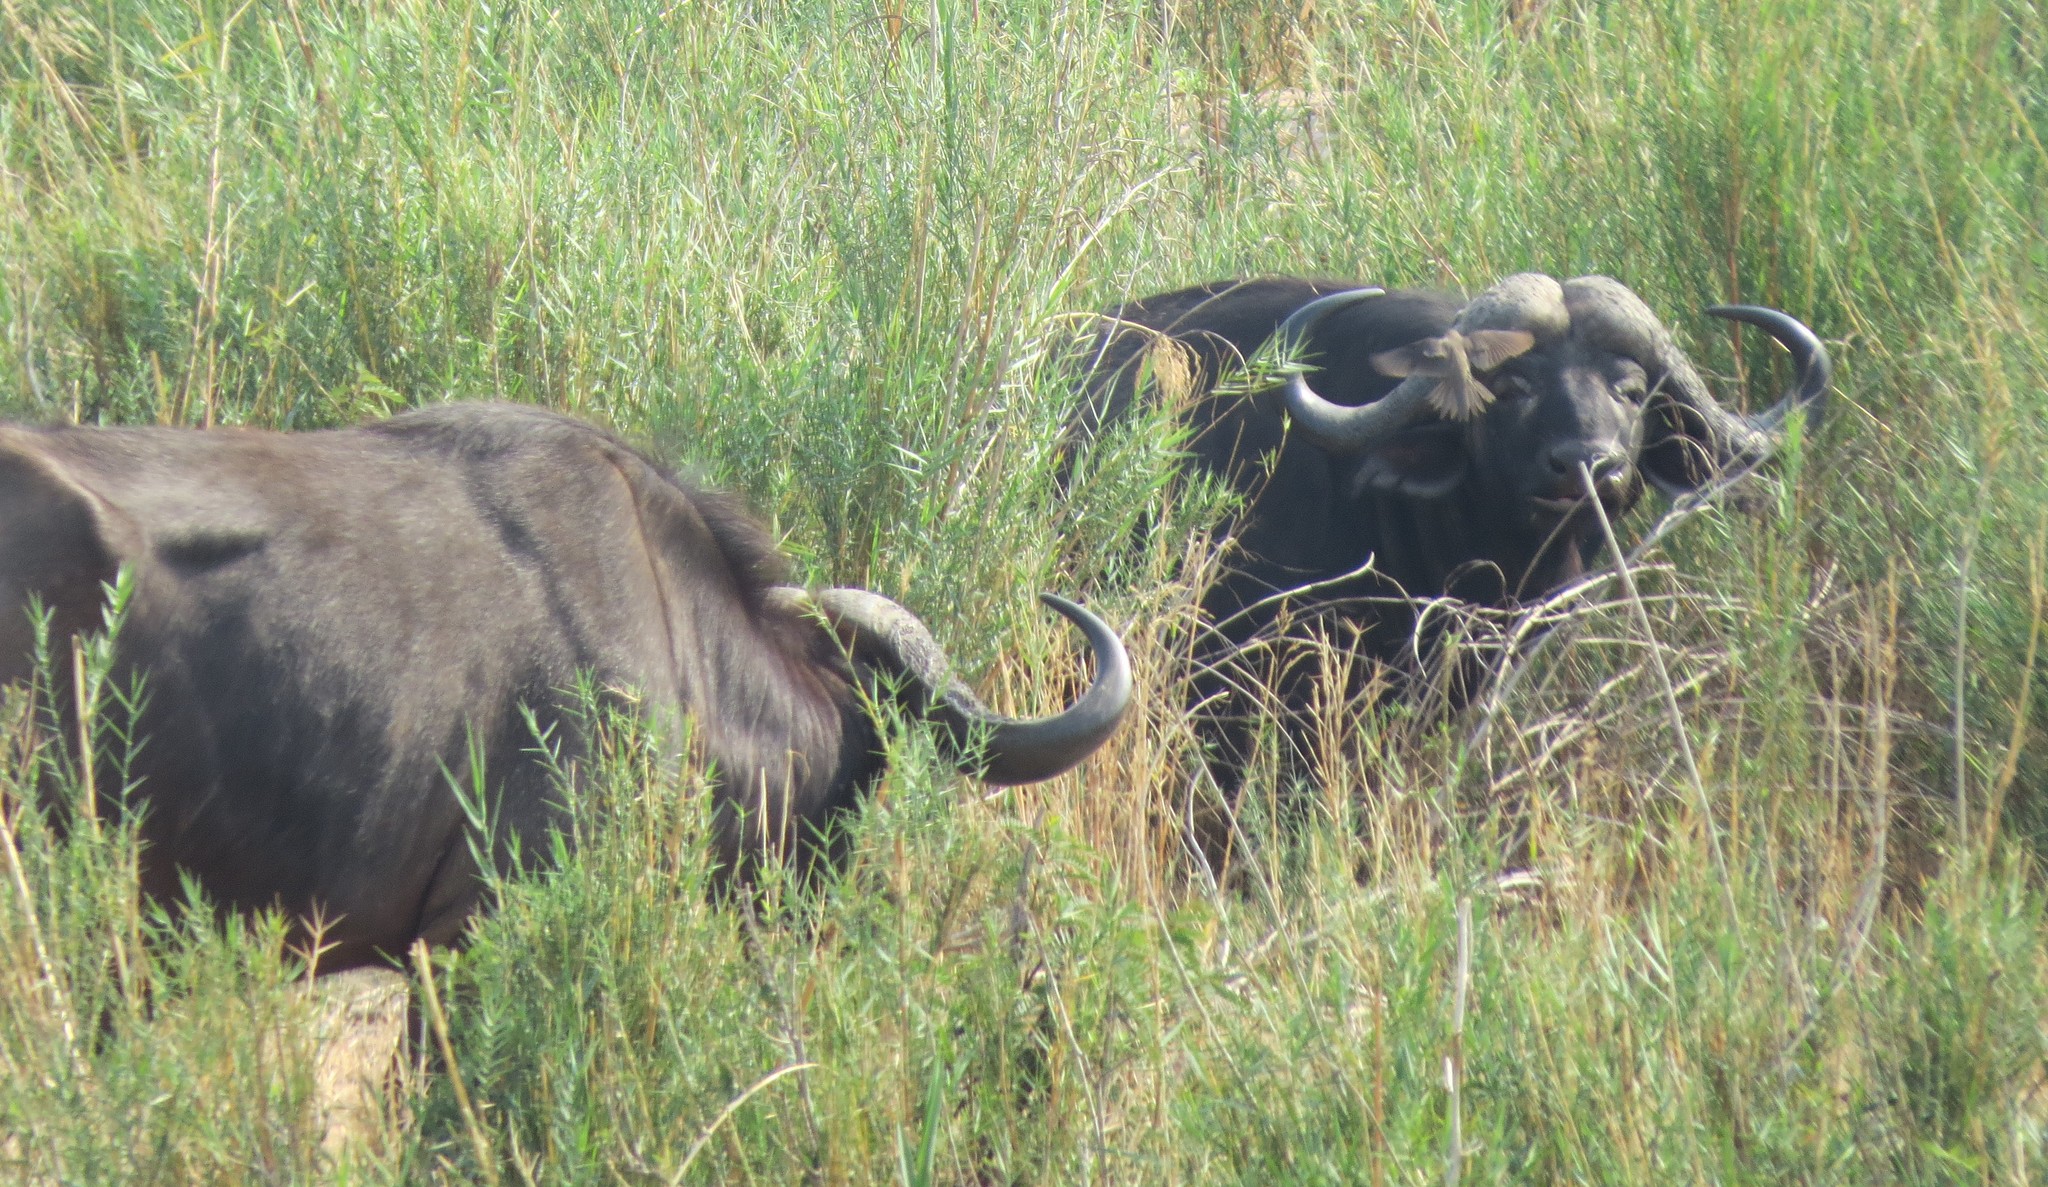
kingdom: Animalia
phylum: Chordata
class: Mammalia
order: Artiodactyla
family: Bovidae
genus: Syncerus
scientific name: Syncerus caffer
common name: African buffalo
